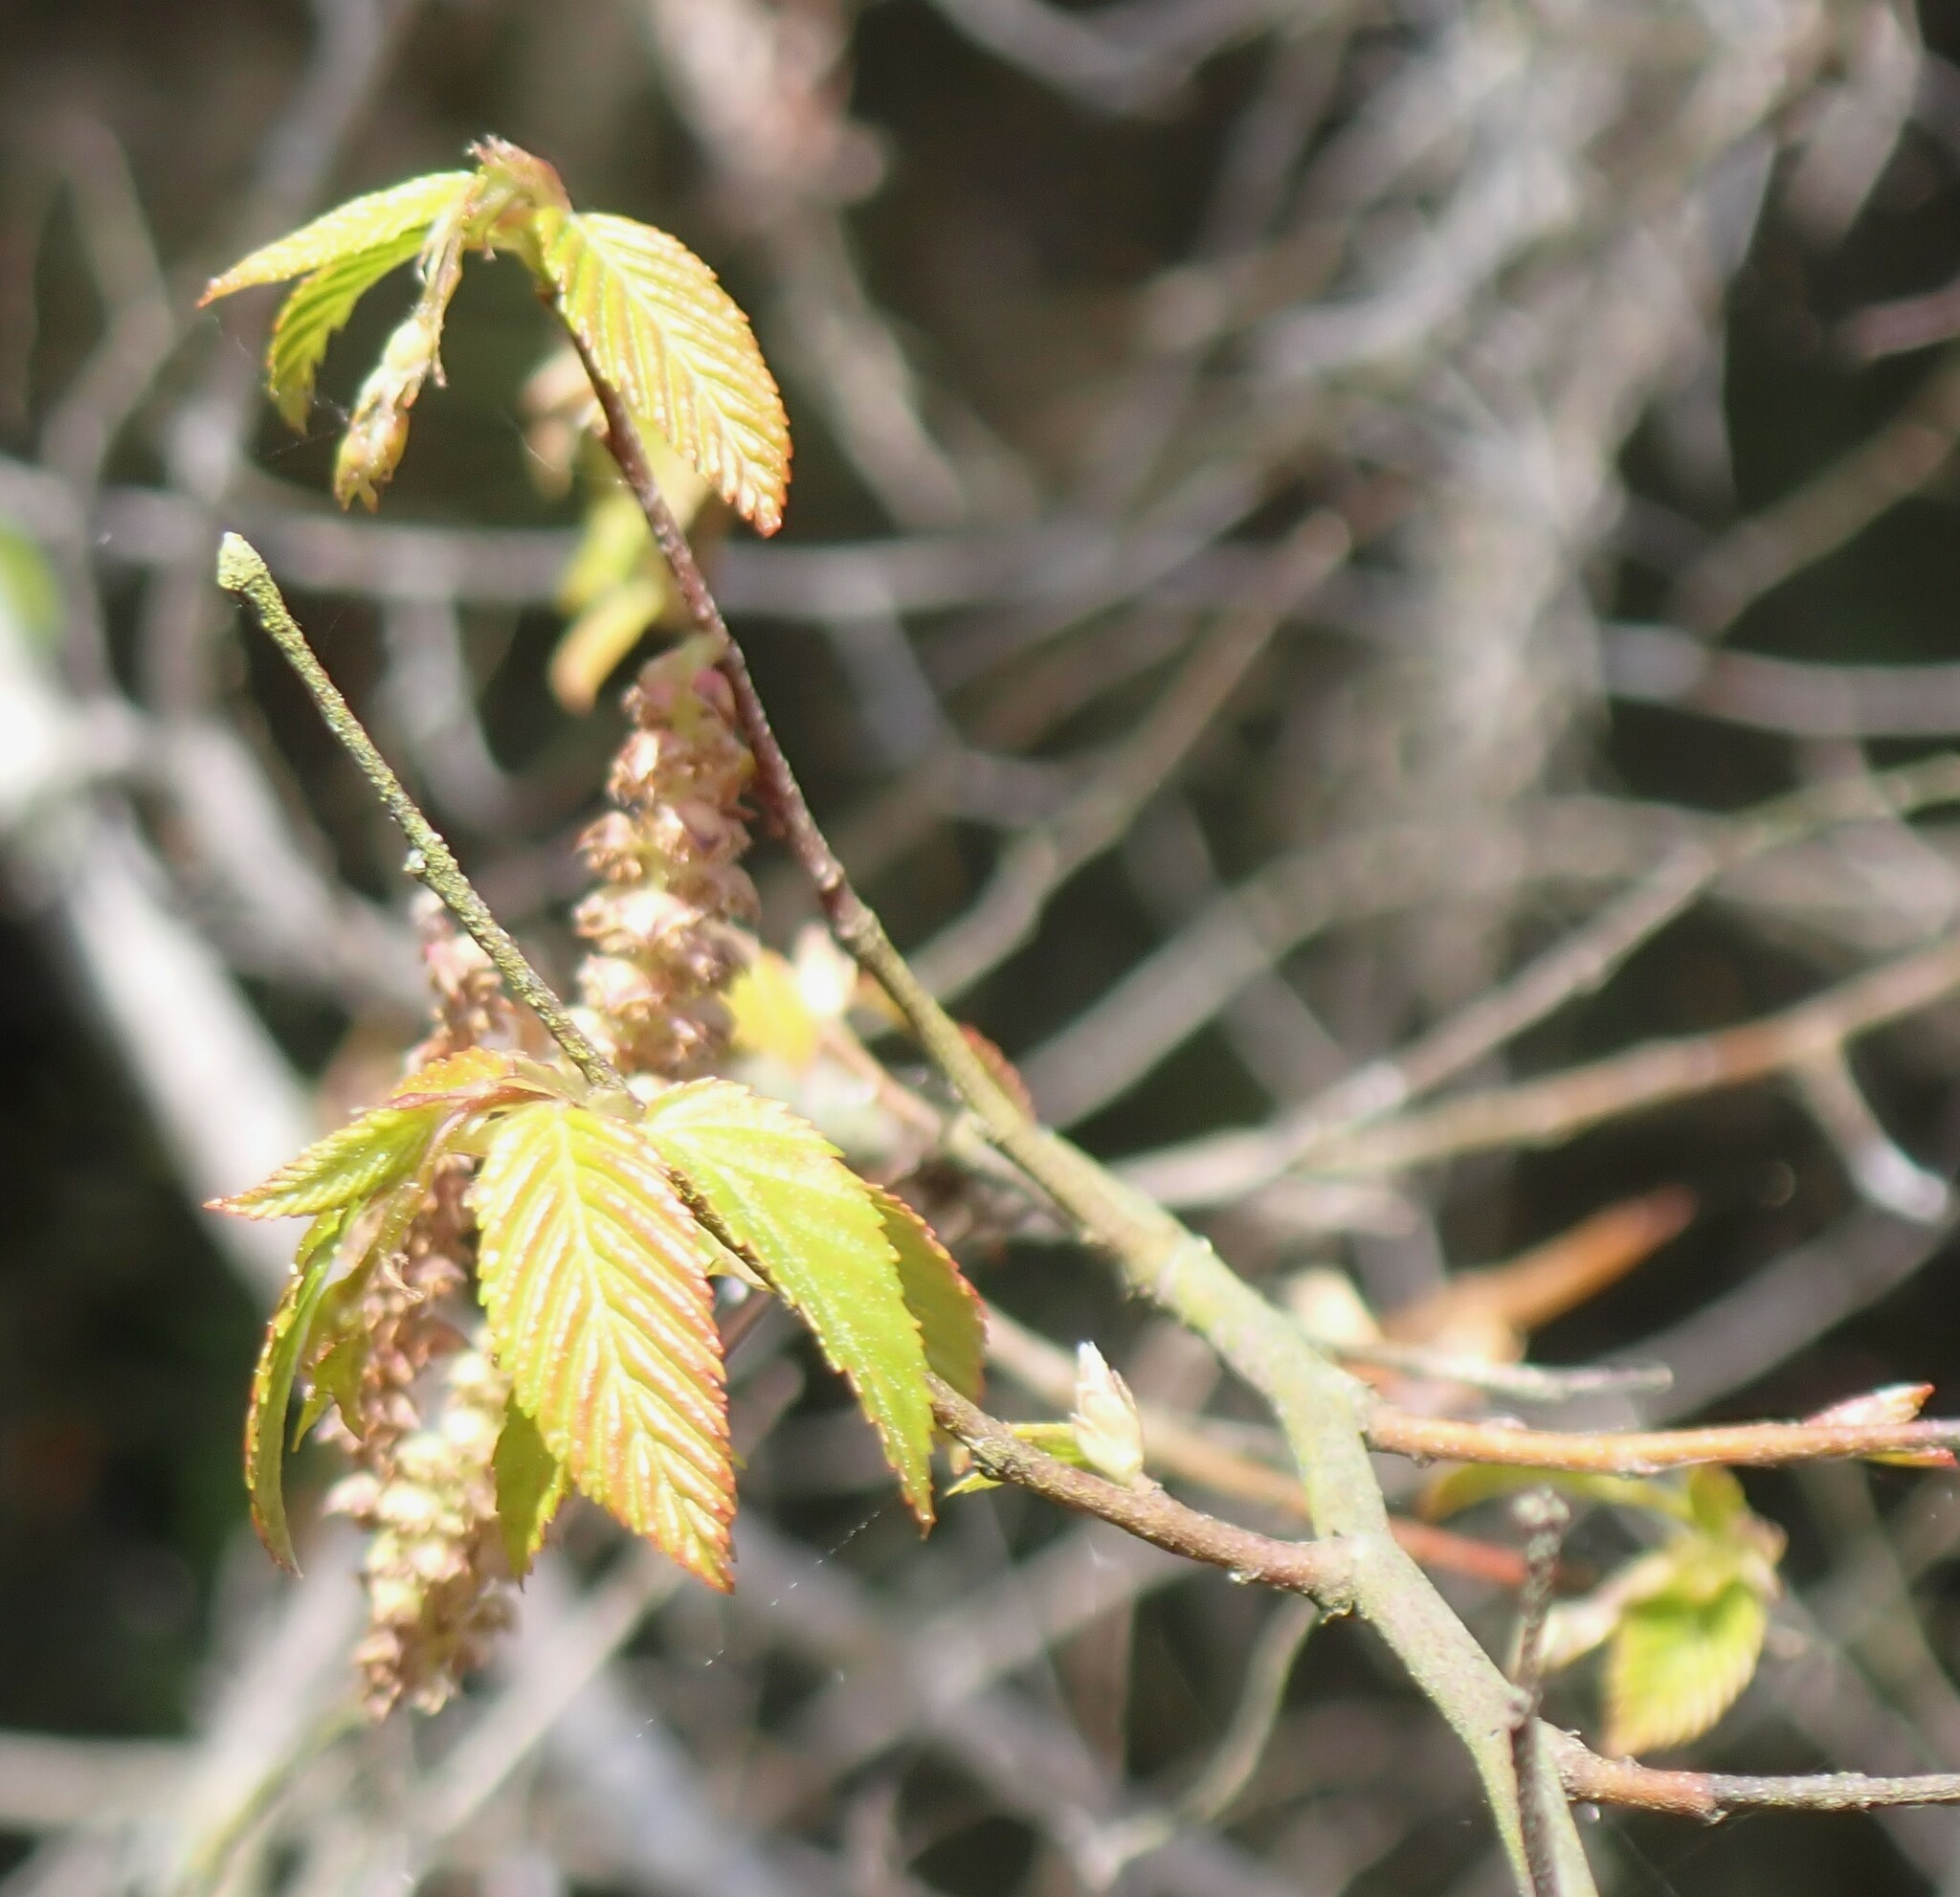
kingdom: Plantae
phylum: Tracheophyta
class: Magnoliopsida
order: Fagales
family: Betulaceae
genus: Alnus
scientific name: Alnus serrulata
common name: Hazel alder
